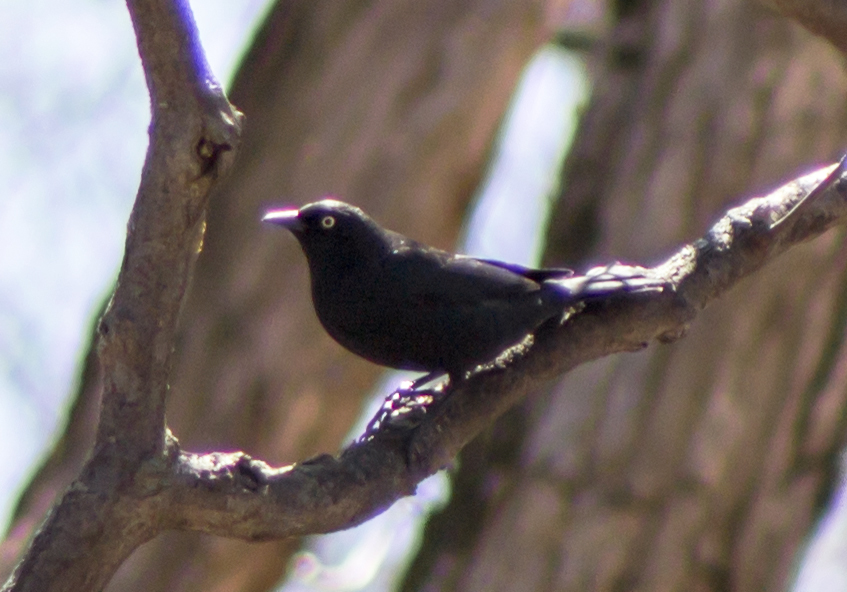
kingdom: Animalia
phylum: Chordata
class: Aves
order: Passeriformes
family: Icteridae
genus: Euphagus
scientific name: Euphagus carolinus
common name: Rusty blackbird
